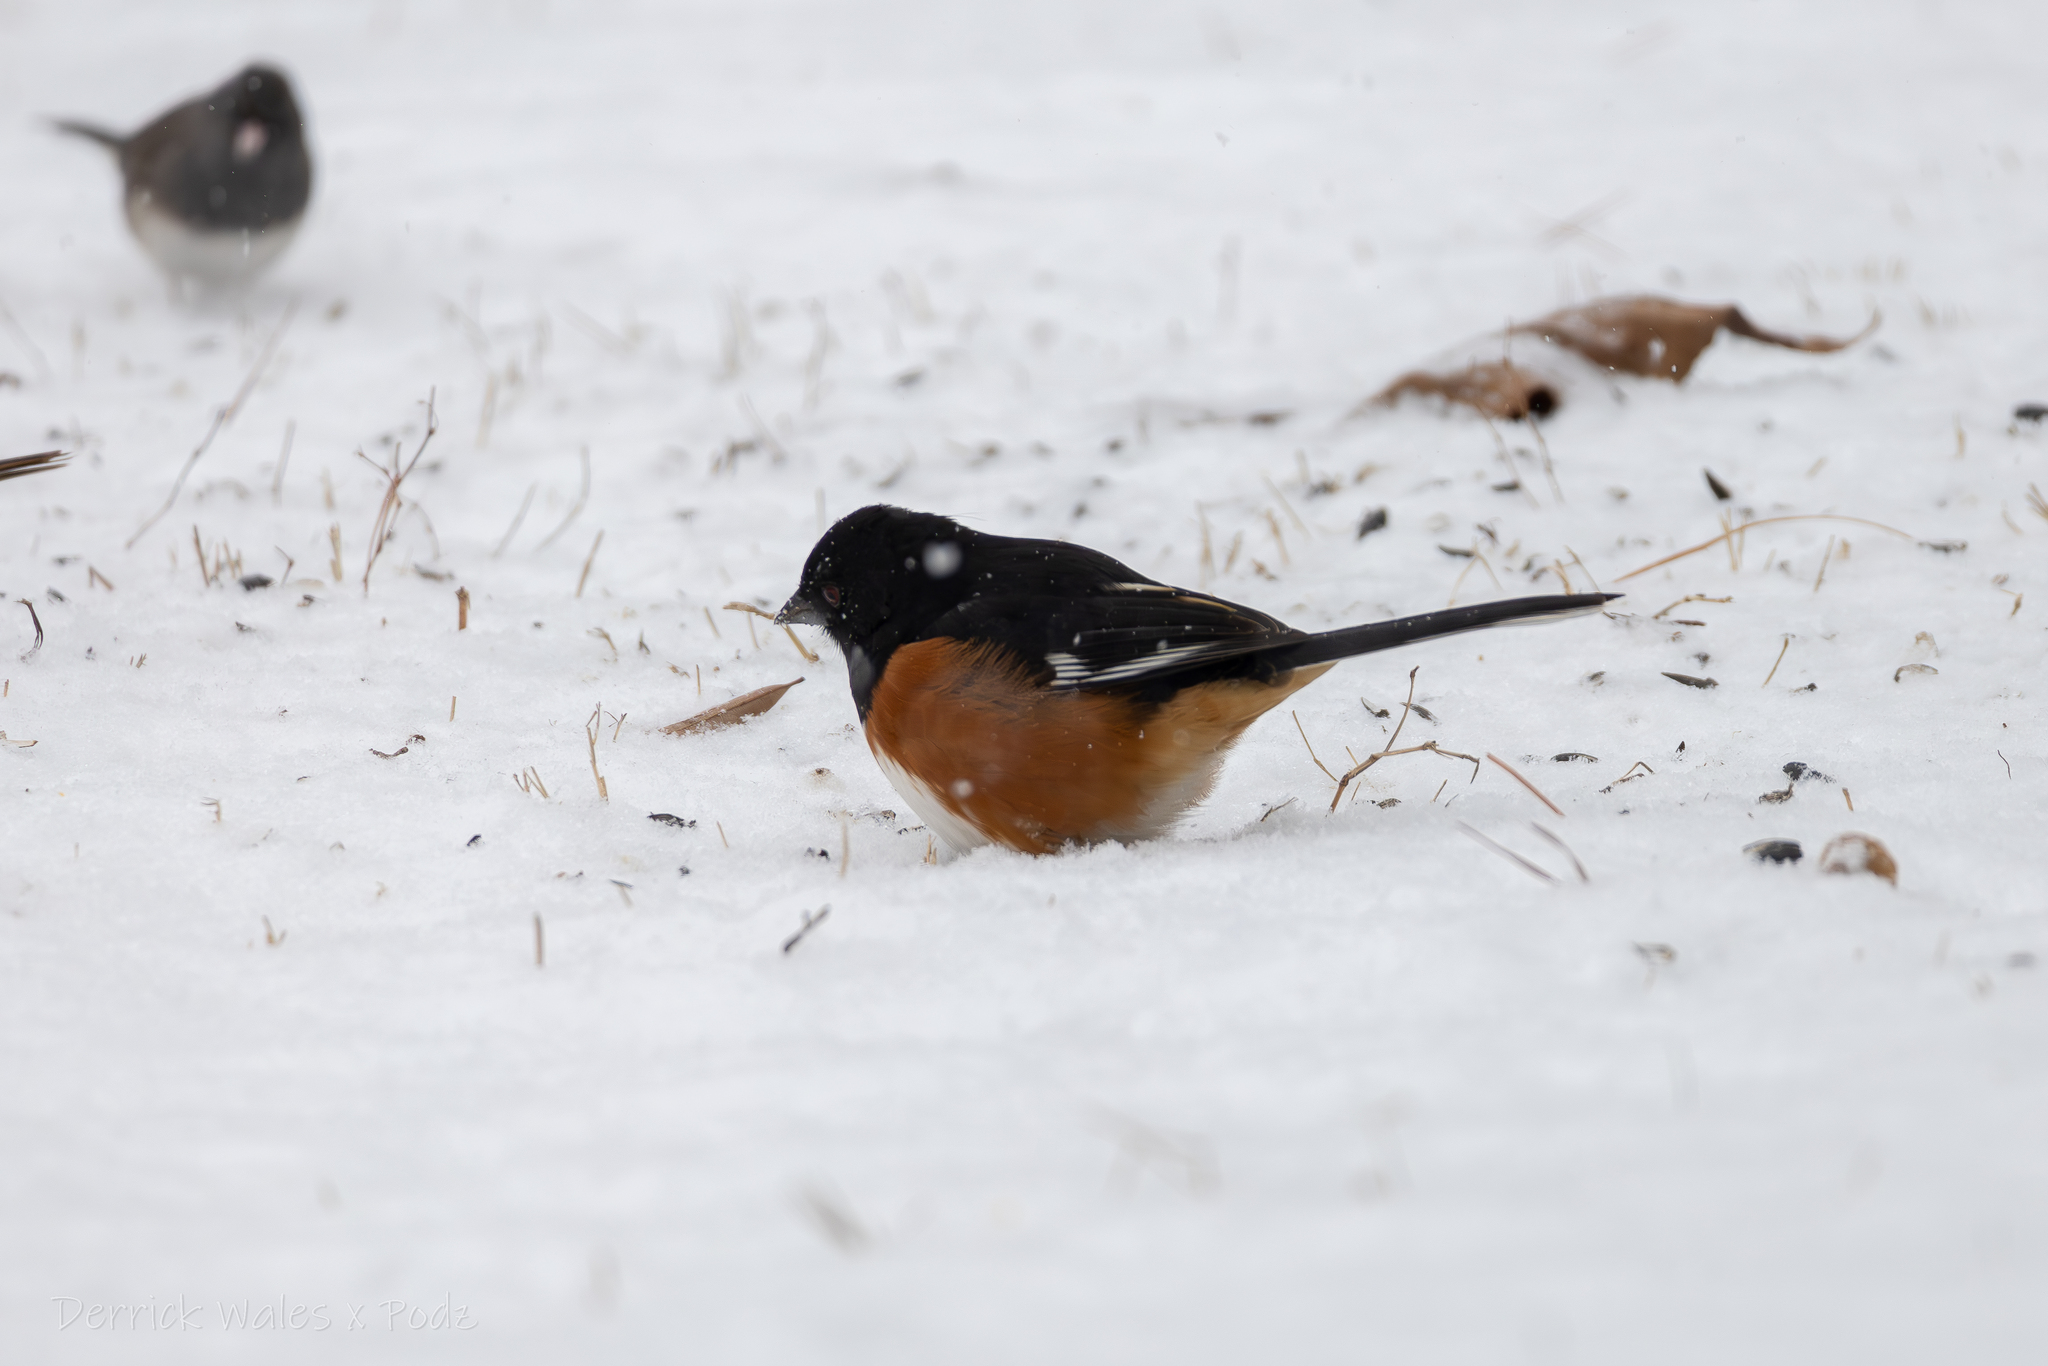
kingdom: Animalia
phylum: Chordata
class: Aves
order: Passeriformes
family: Passerellidae
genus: Pipilo
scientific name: Pipilo erythrophthalmus
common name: Eastern towhee
